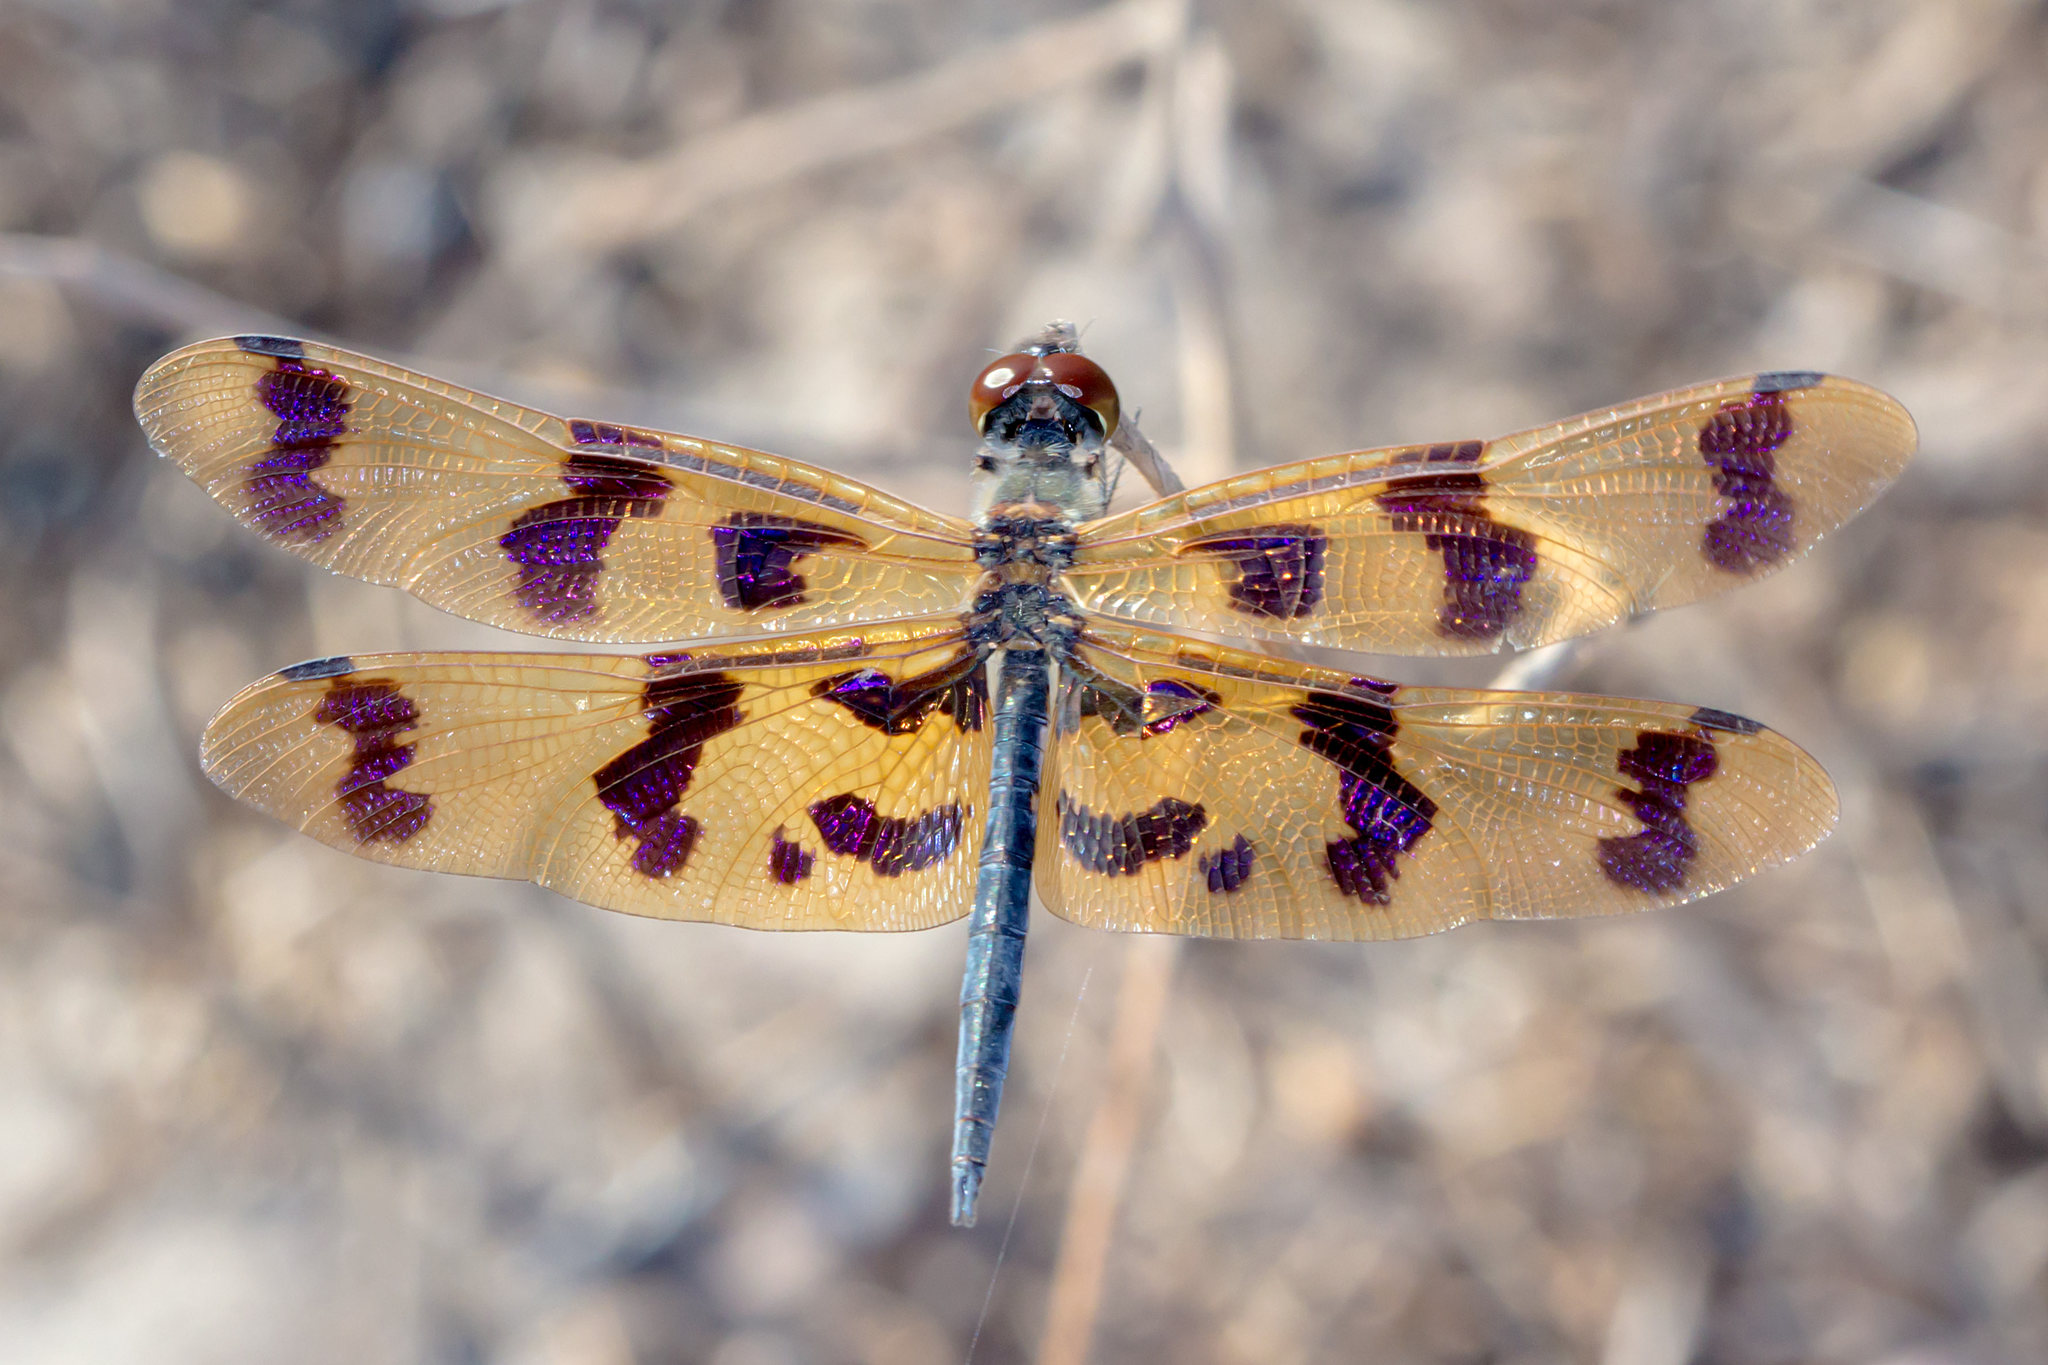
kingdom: Animalia
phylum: Arthropoda
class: Insecta
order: Odonata
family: Libellulidae
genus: Rhyothemis
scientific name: Rhyothemis graphiptera
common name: Graphic flutterer
